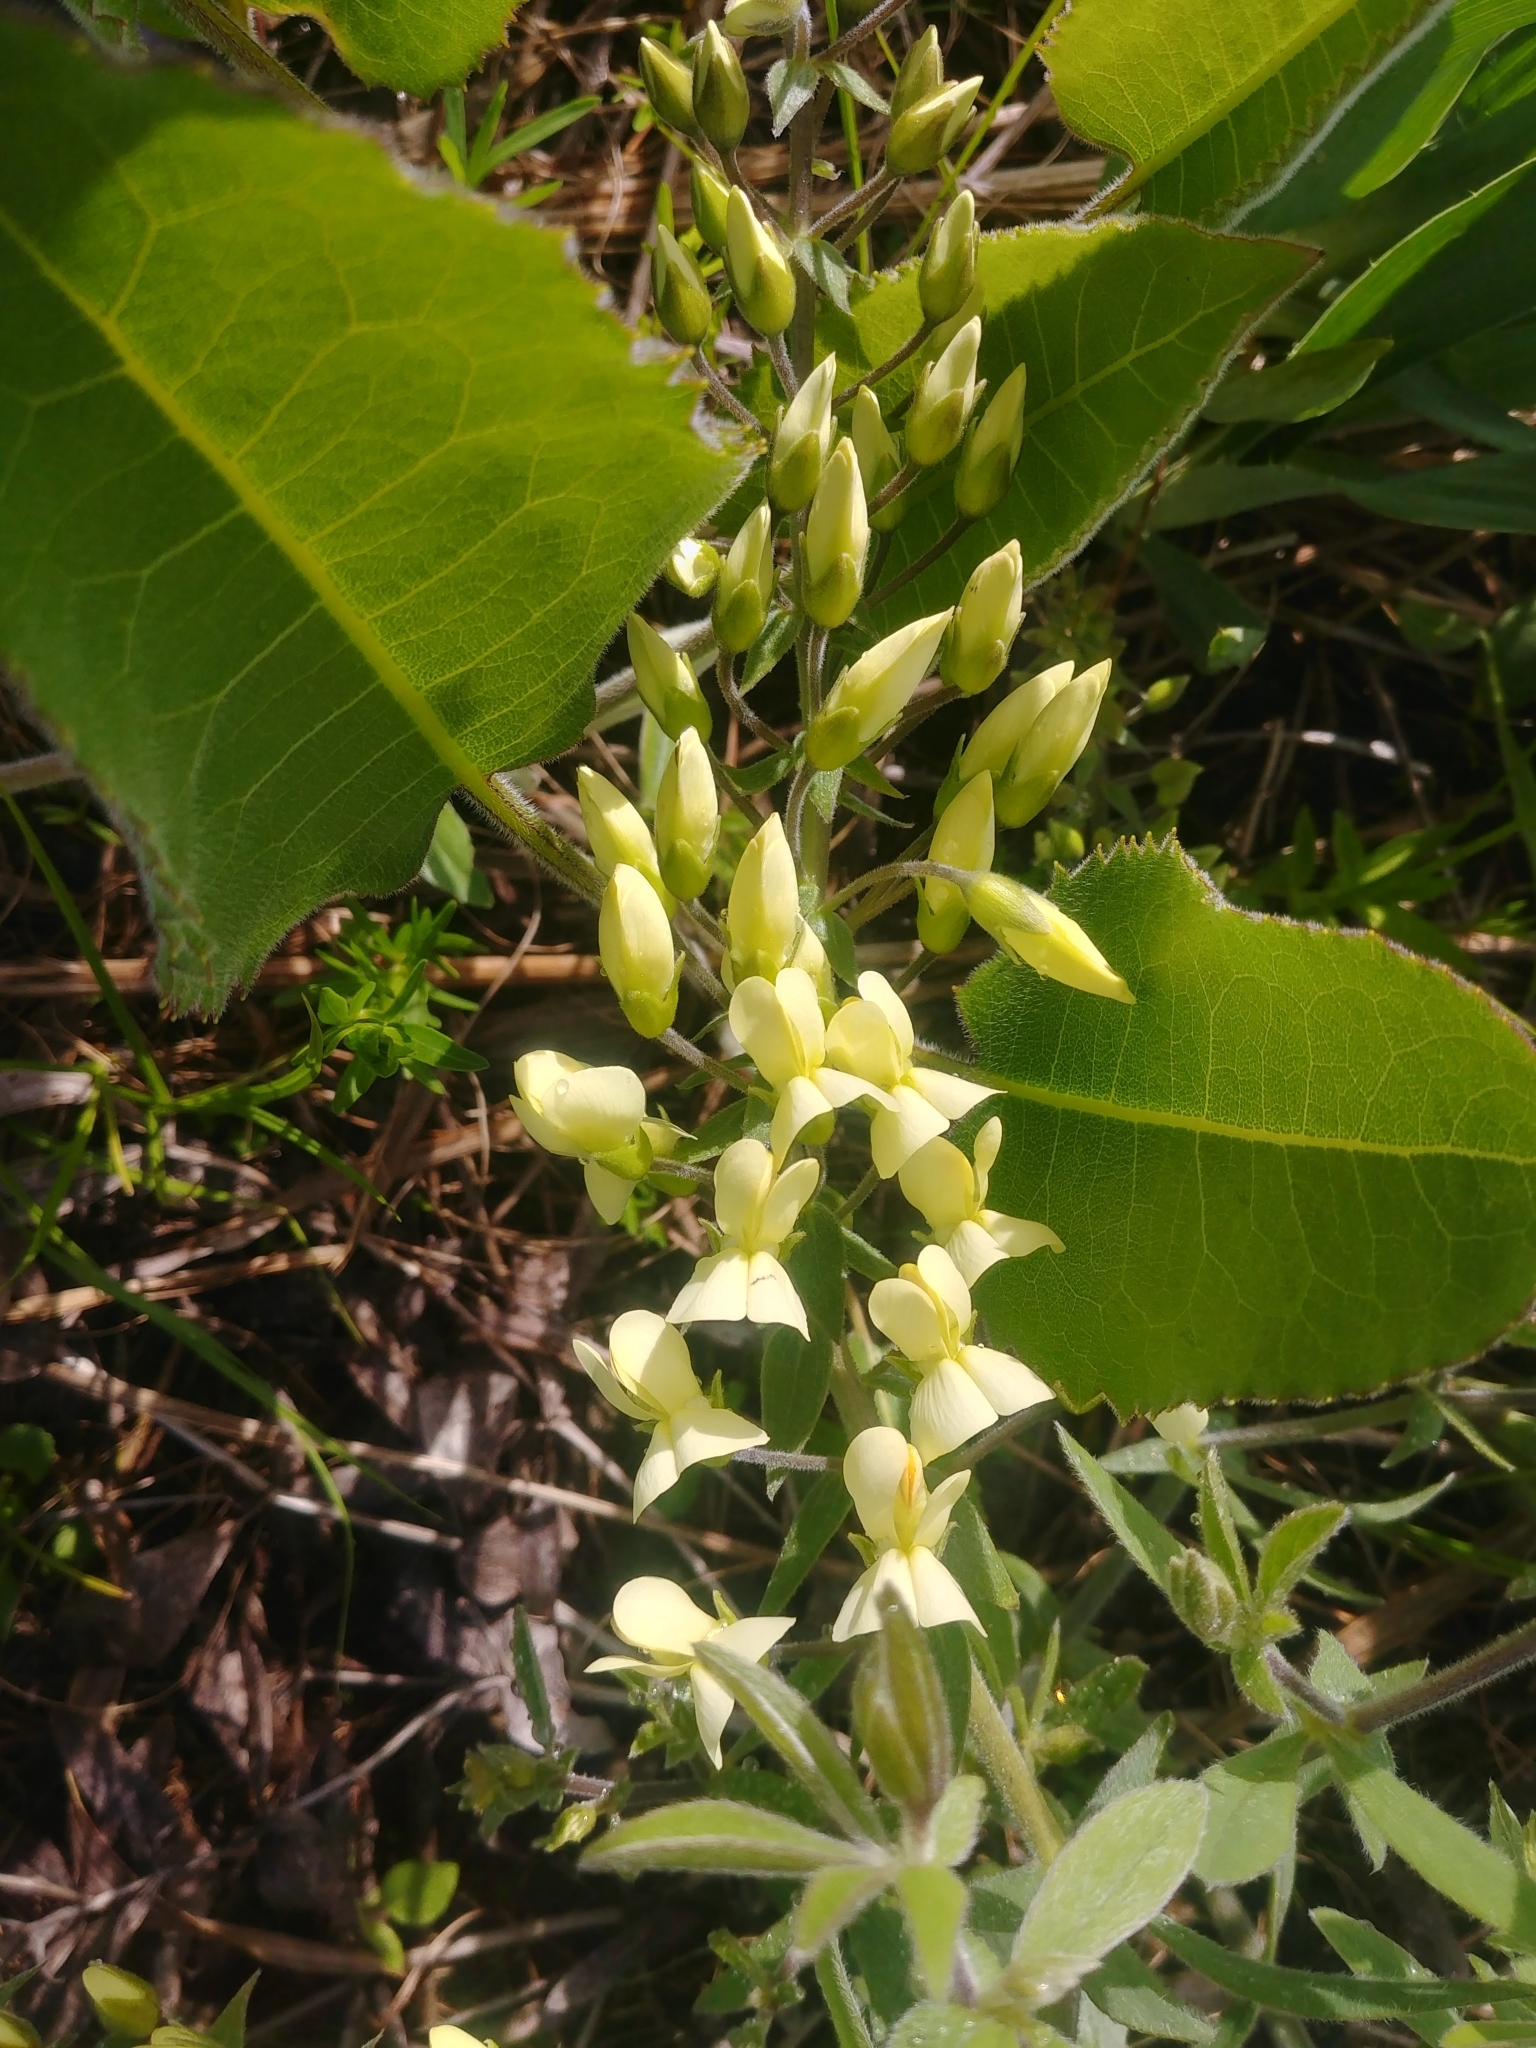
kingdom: Plantae
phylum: Tracheophyta
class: Magnoliopsida
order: Fabales
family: Fabaceae
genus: Baptisia
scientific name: Baptisia bracteata
